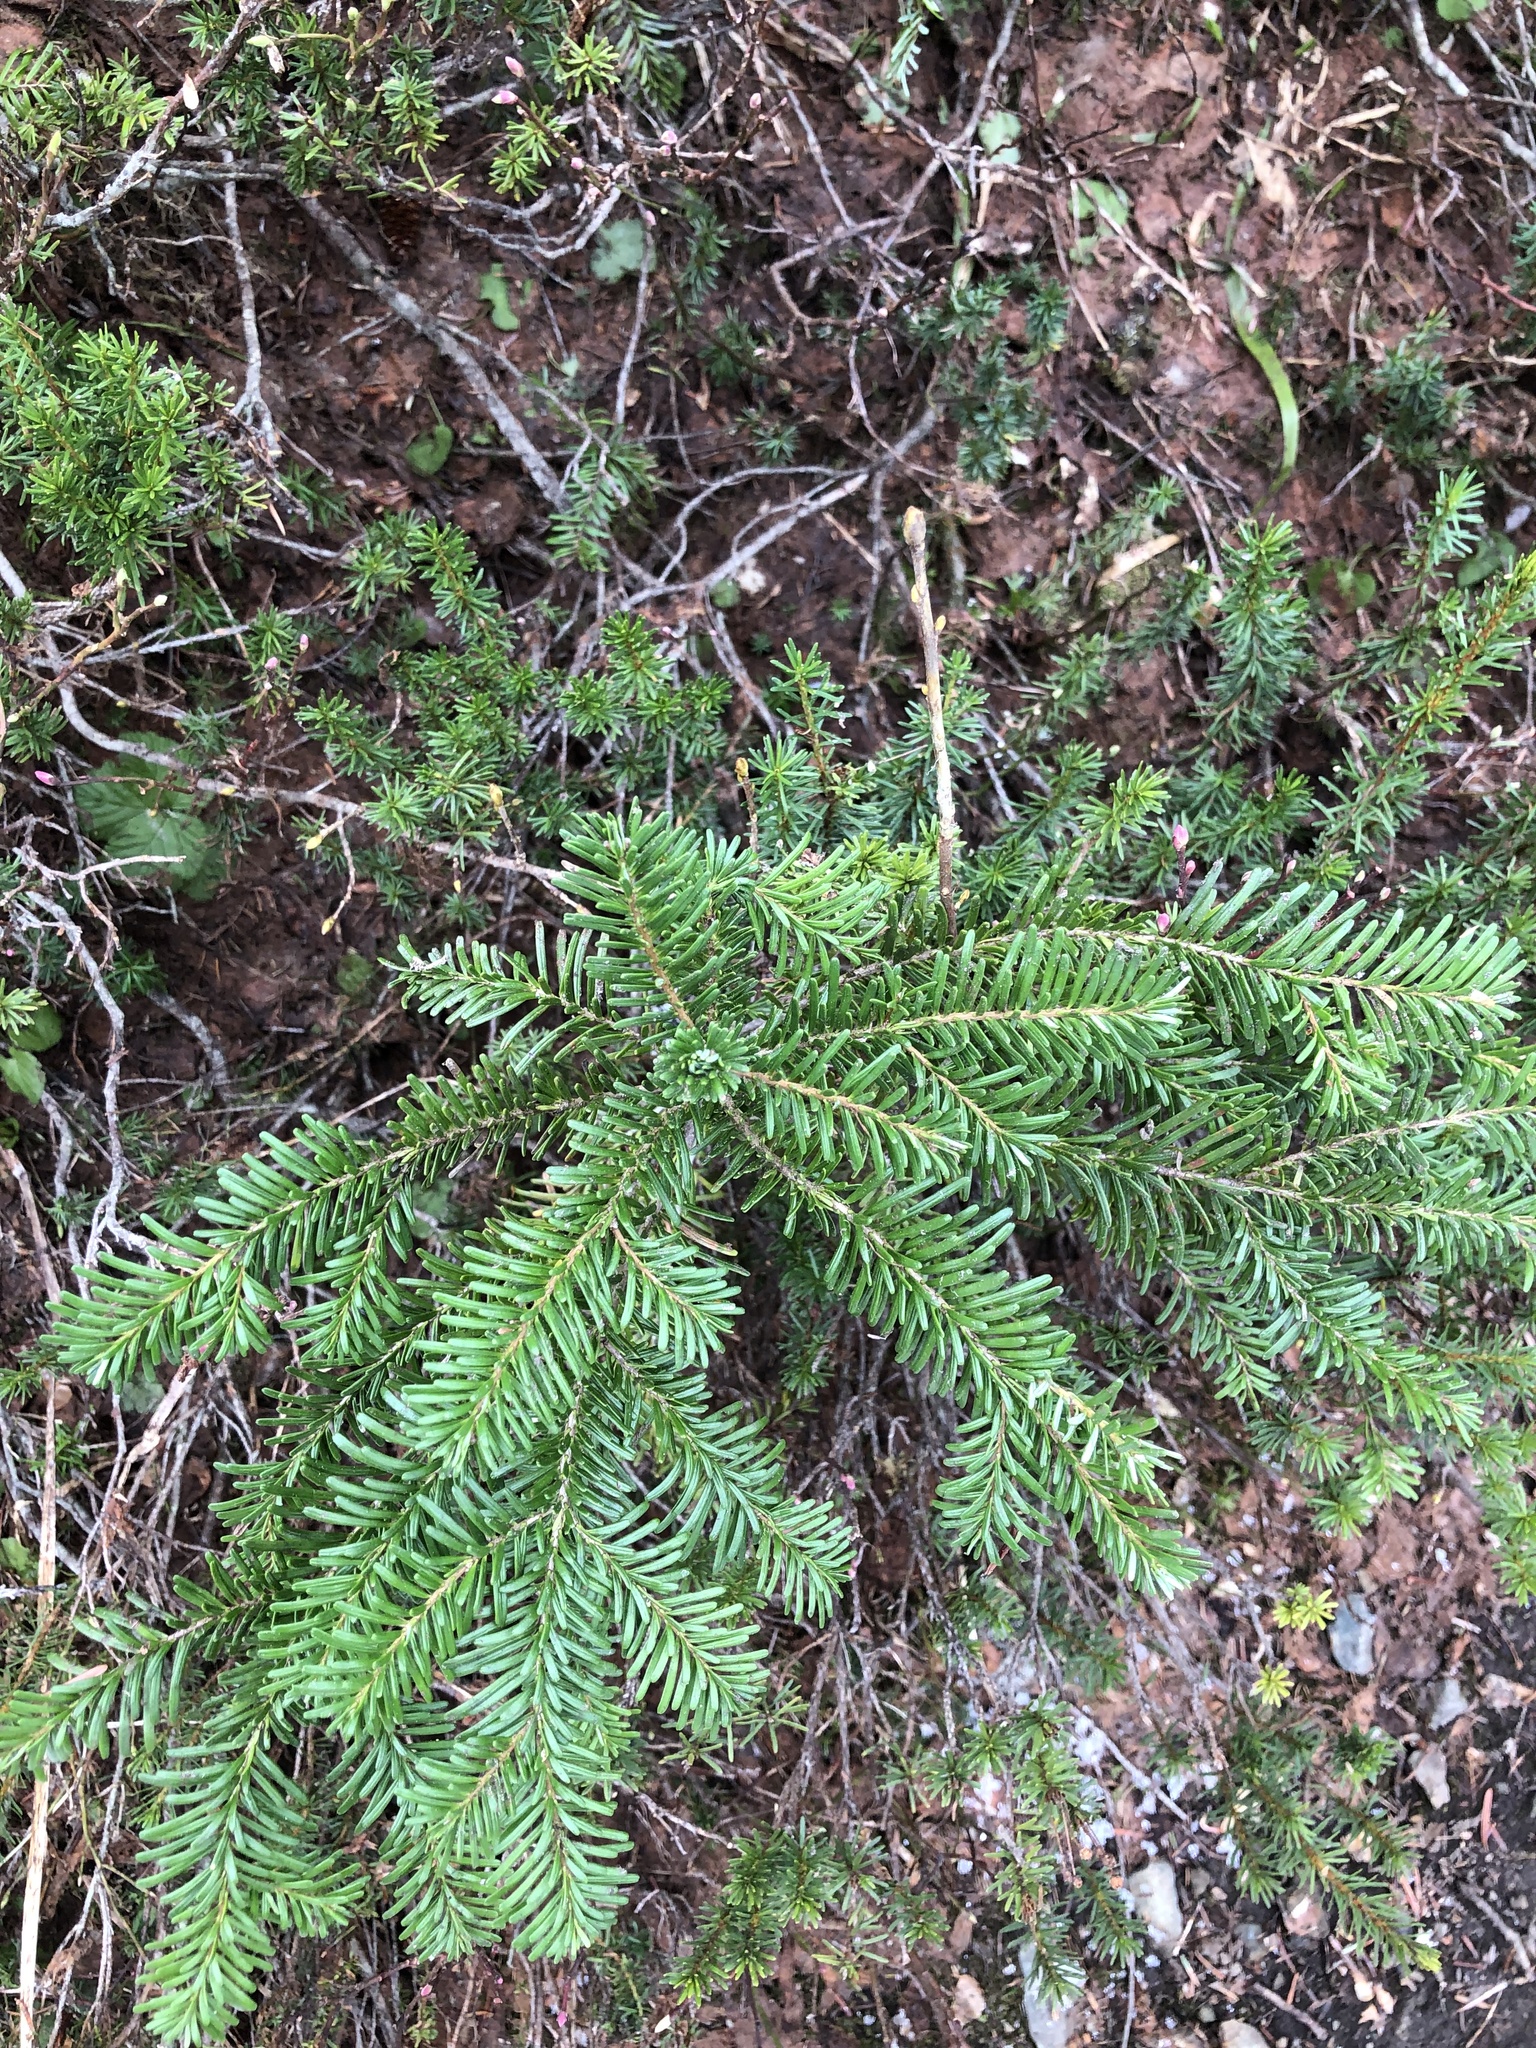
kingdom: Plantae
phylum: Tracheophyta
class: Pinopsida
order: Pinales
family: Pinaceae
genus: Abies
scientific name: Abies amabilis
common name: Pacific silver fir
